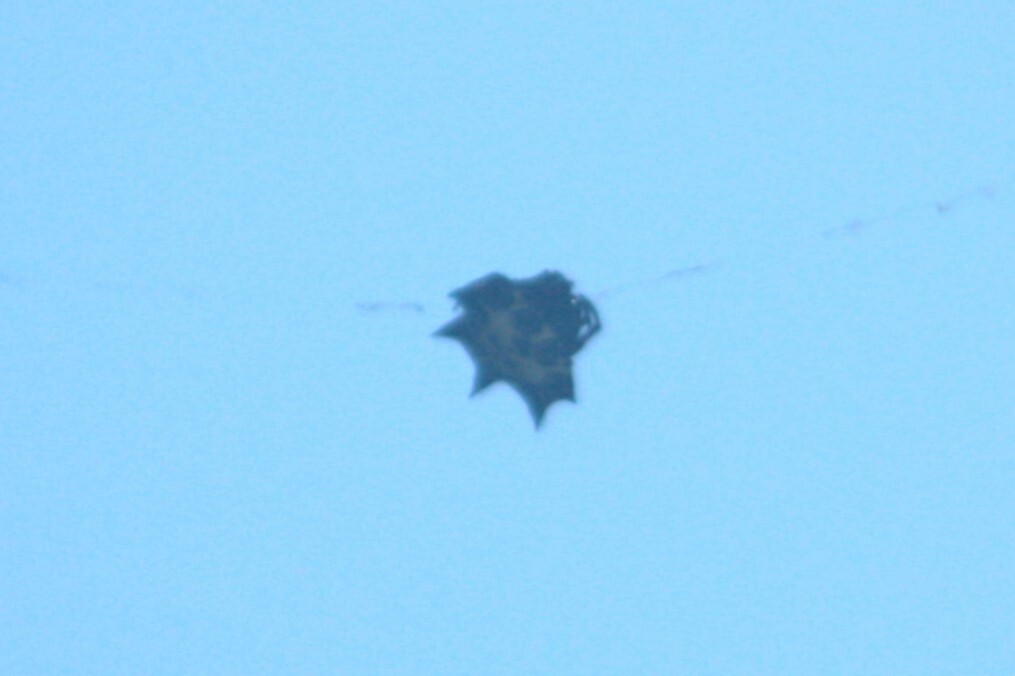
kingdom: Animalia
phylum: Arthropoda
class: Arachnida
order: Araneae
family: Araneidae
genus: Gasteracantha
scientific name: Gasteracantha kuhli
